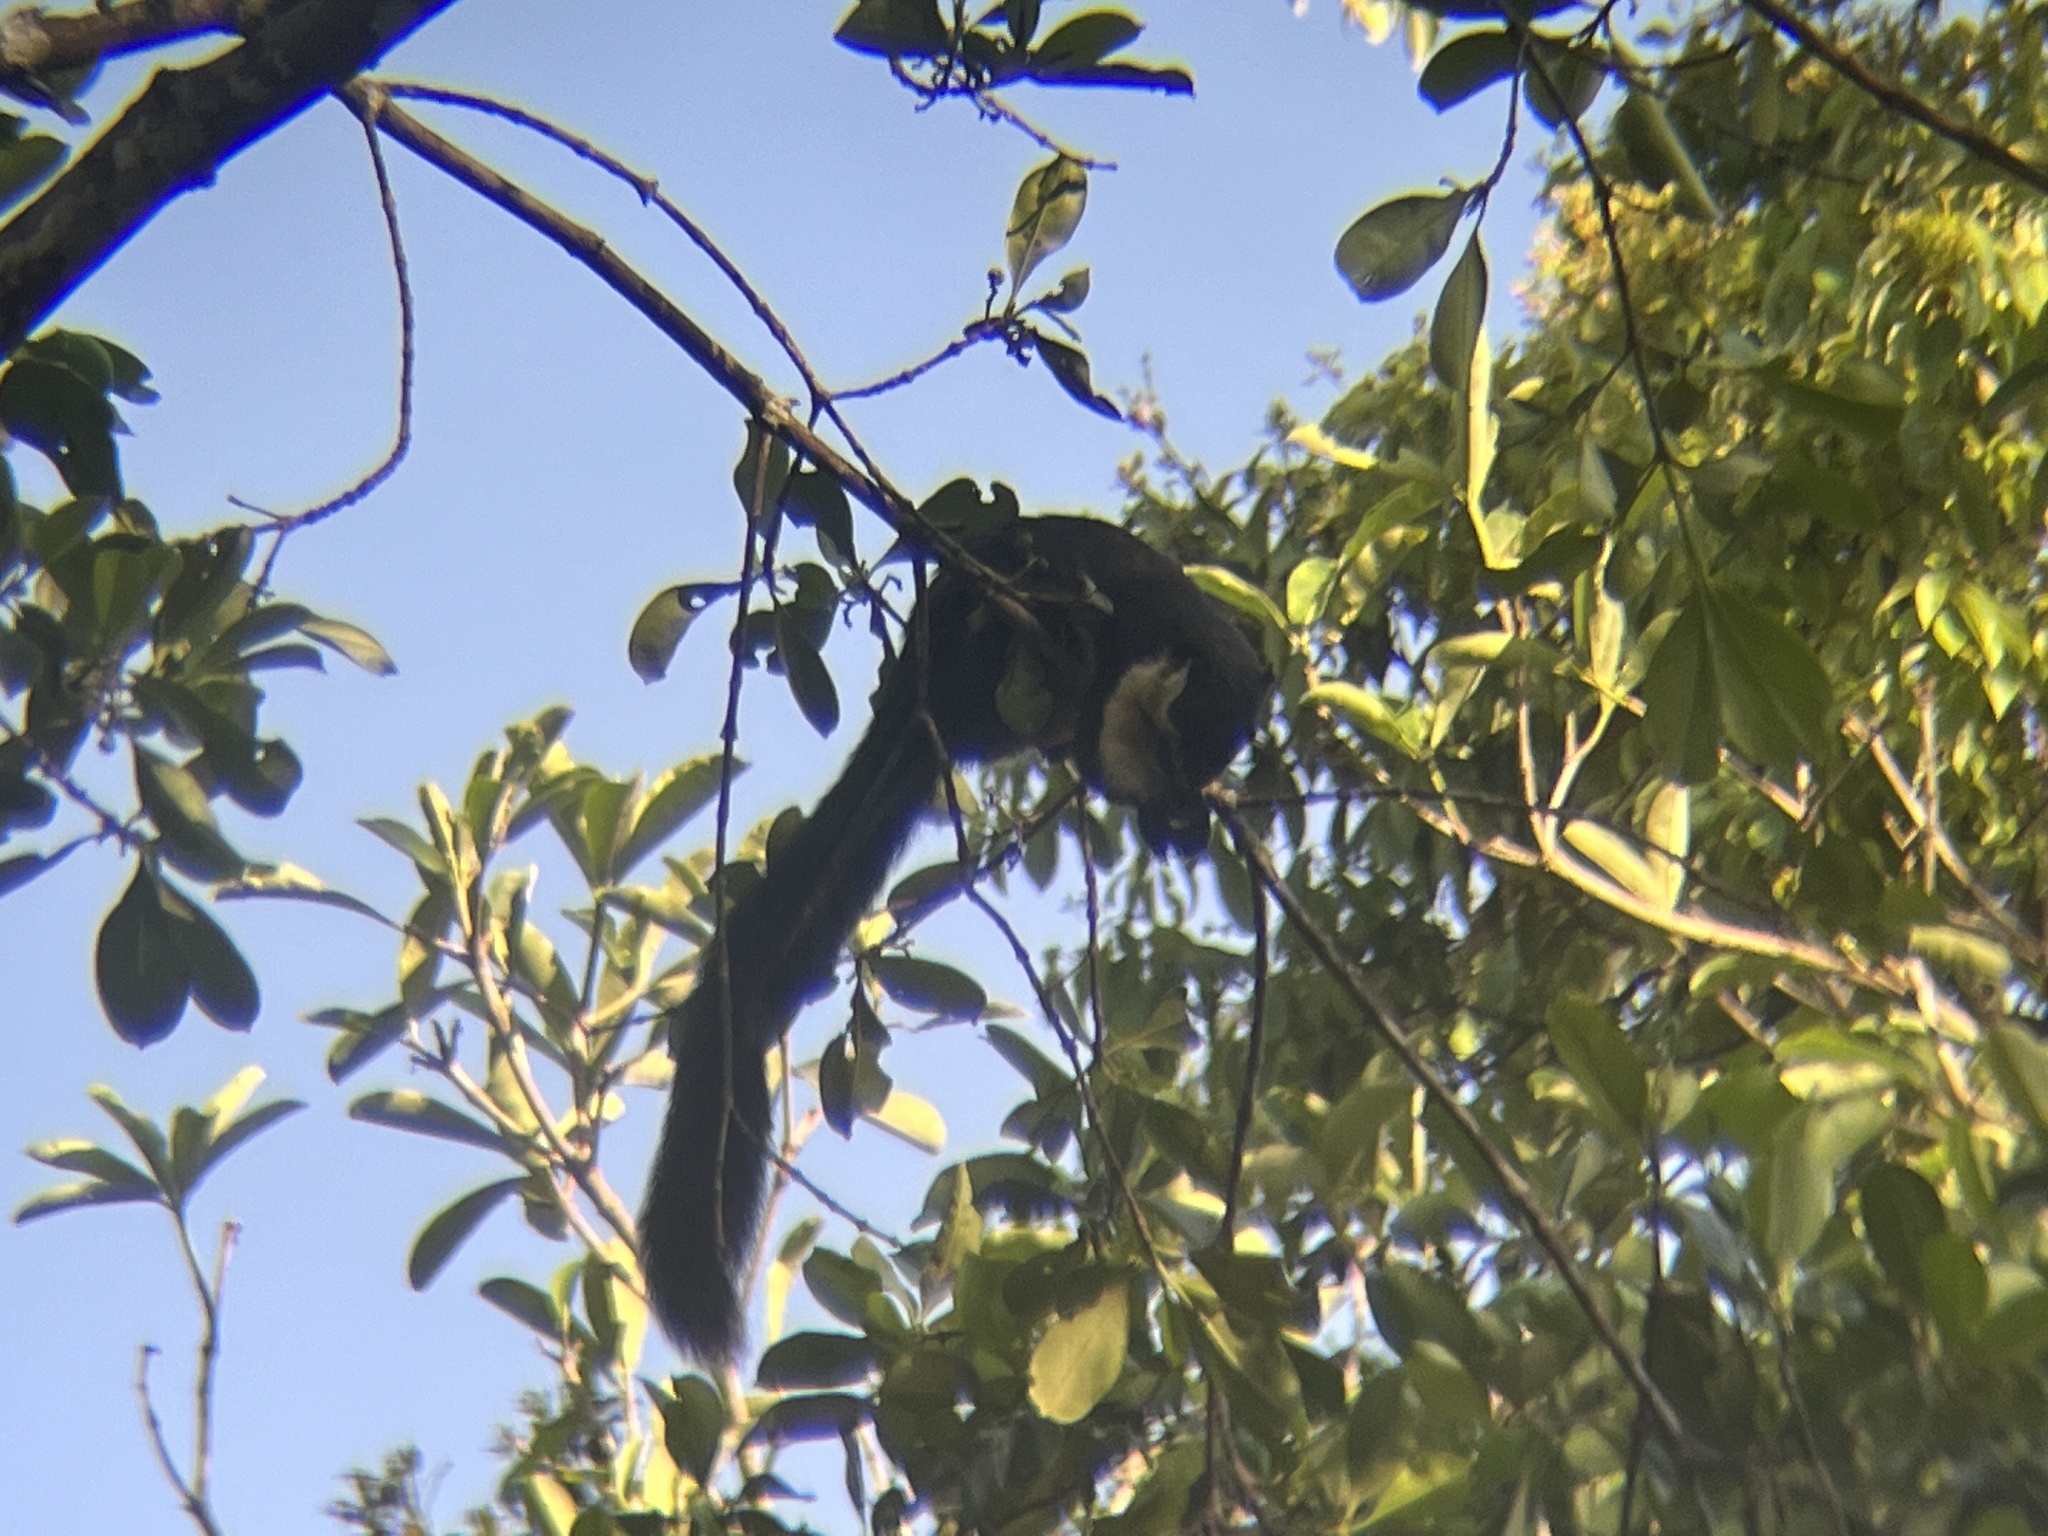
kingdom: Animalia
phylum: Chordata
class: Mammalia
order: Rodentia
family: Sciuridae
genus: Ratufa
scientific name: Ratufa bicolor
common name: Black giant squirrel
